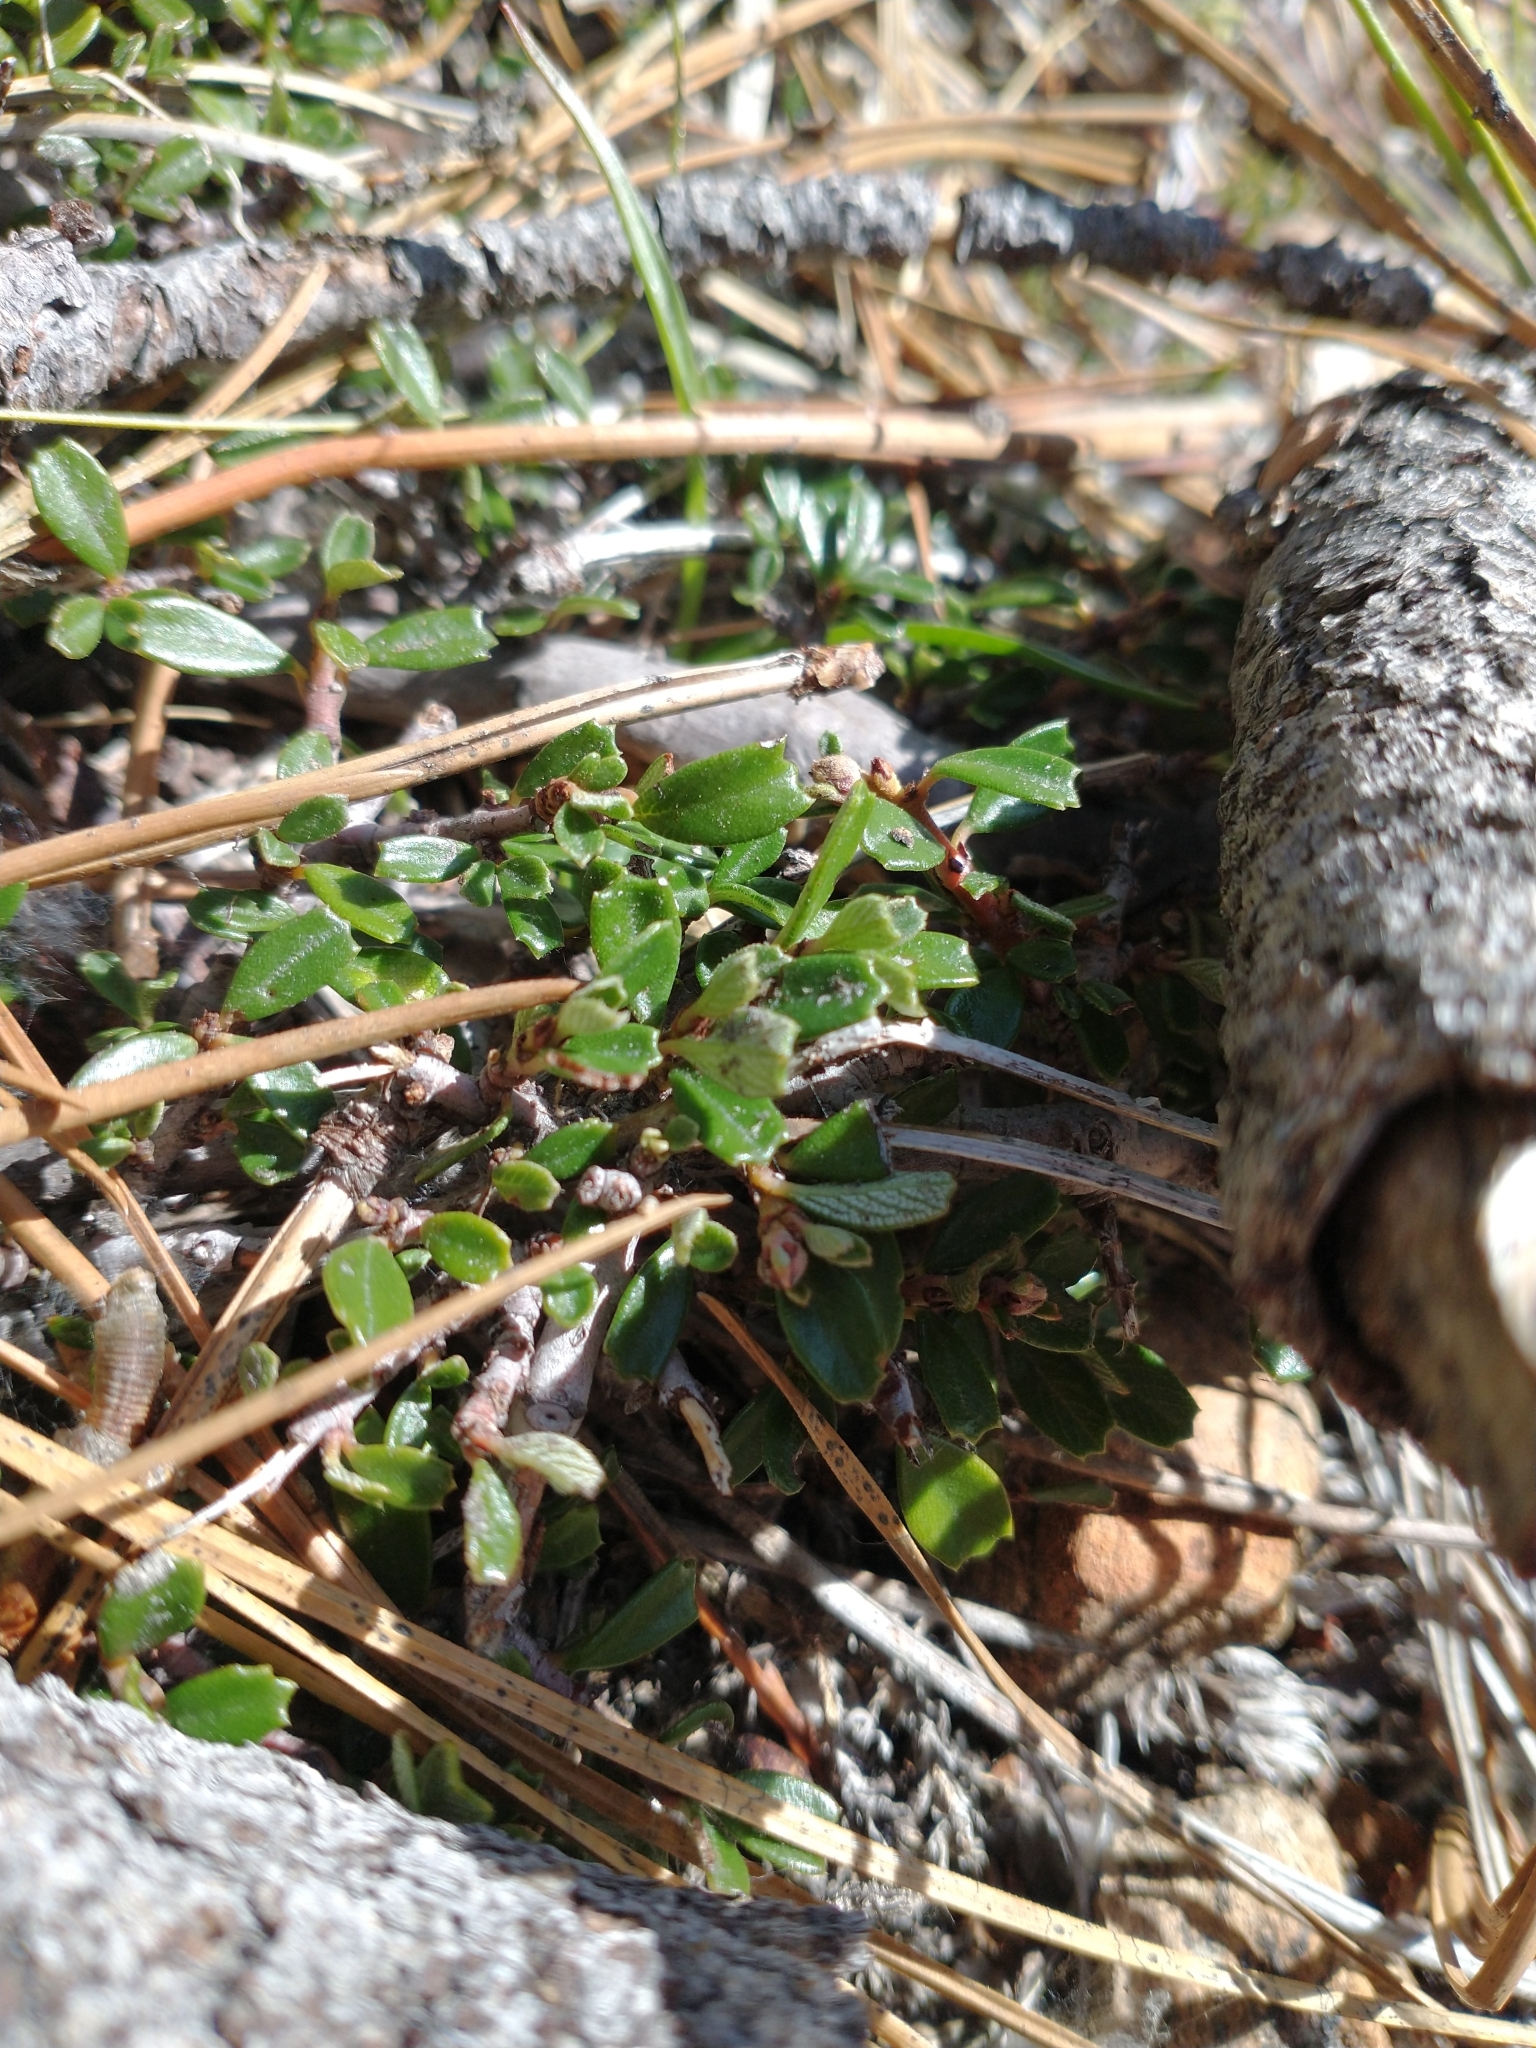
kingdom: Plantae
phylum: Tracheophyta
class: Magnoliopsida
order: Rosales
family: Rhamnaceae
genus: Ceanothus
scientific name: Ceanothus pumilus
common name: Siskiyou-mat
